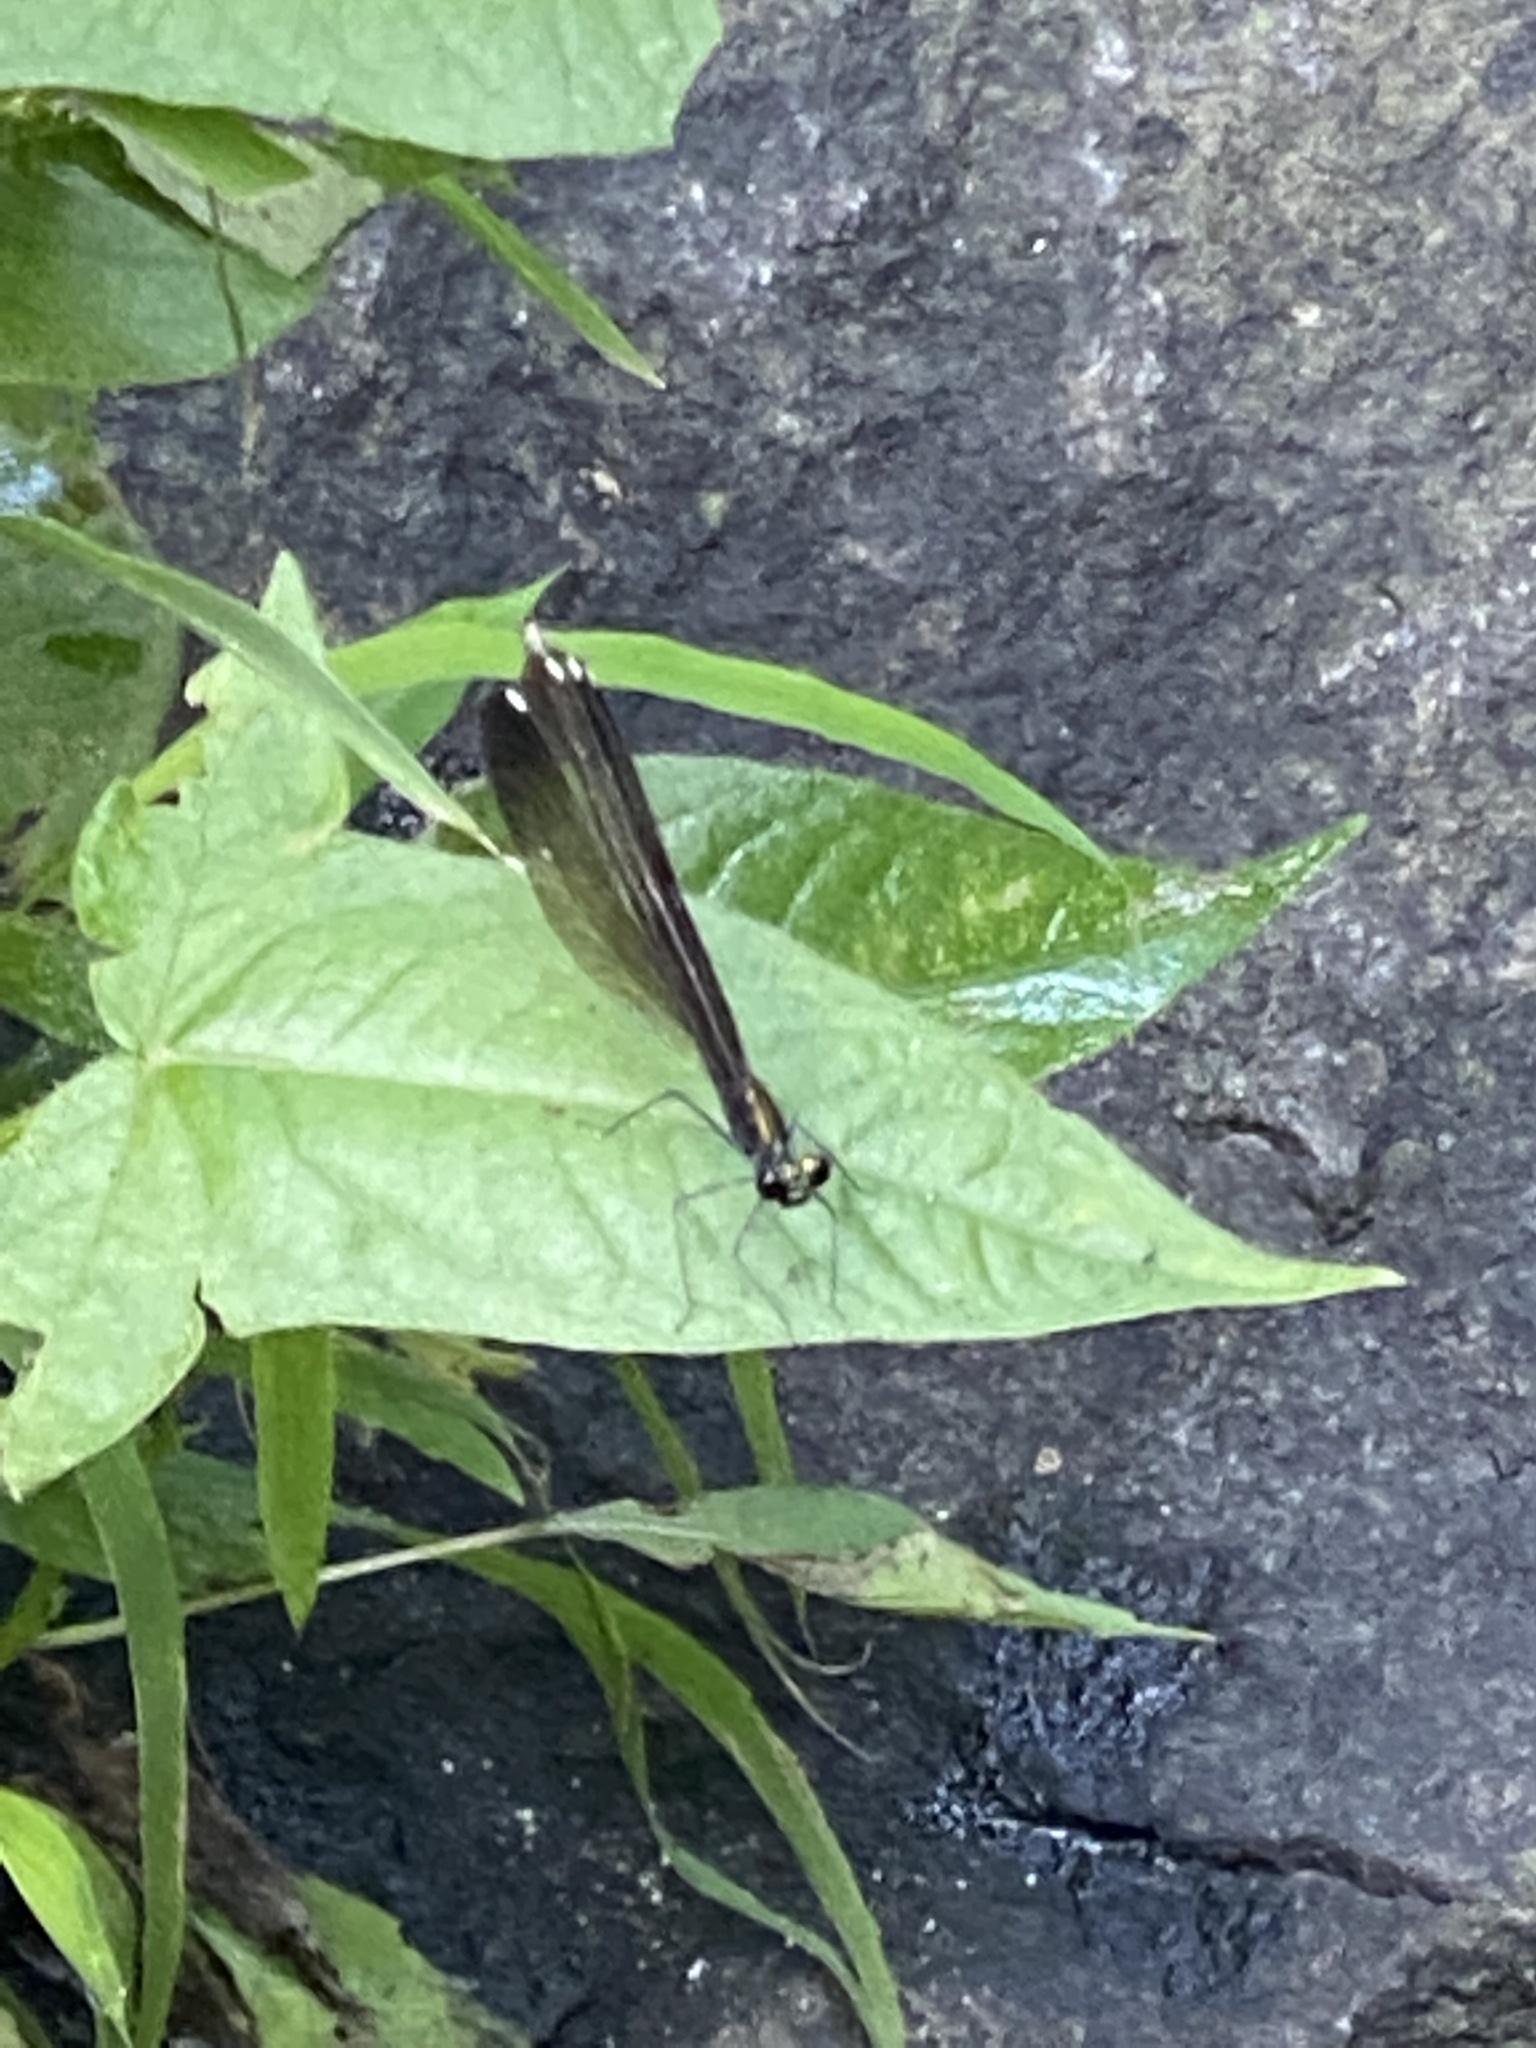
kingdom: Animalia
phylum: Arthropoda
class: Insecta
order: Odonata
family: Calopterygidae
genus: Calopteryx
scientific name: Calopteryx maculata
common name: Ebony jewelwing
